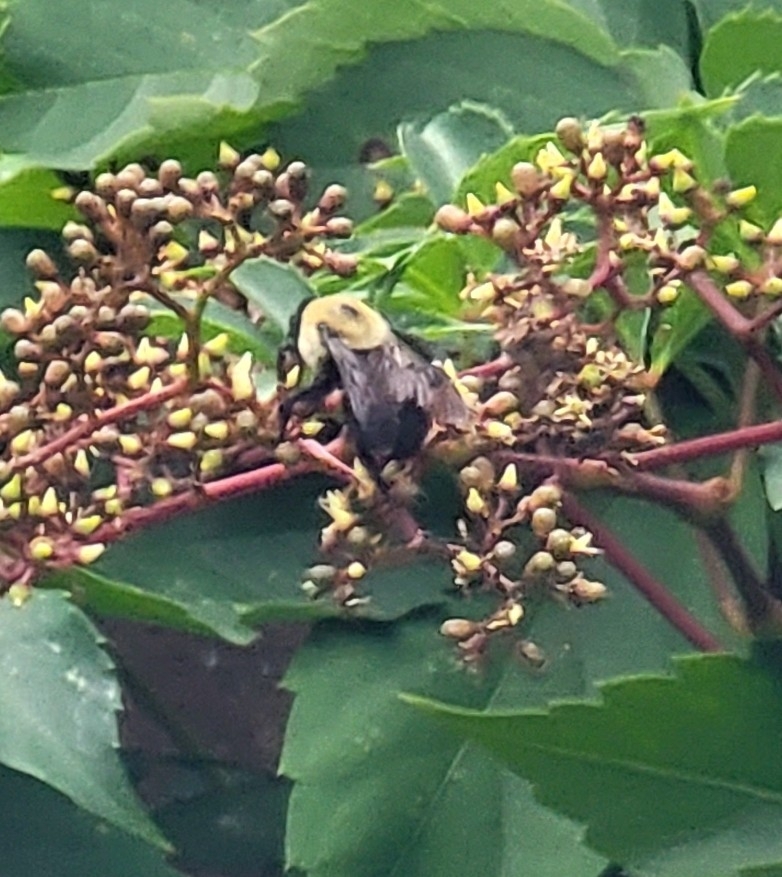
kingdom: Animalia
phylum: Arthropoda
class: Insecta
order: Hymenoptera
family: Apidae
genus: Bombus
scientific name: Bombus griseocollis
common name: Brown-belted bumble bee
